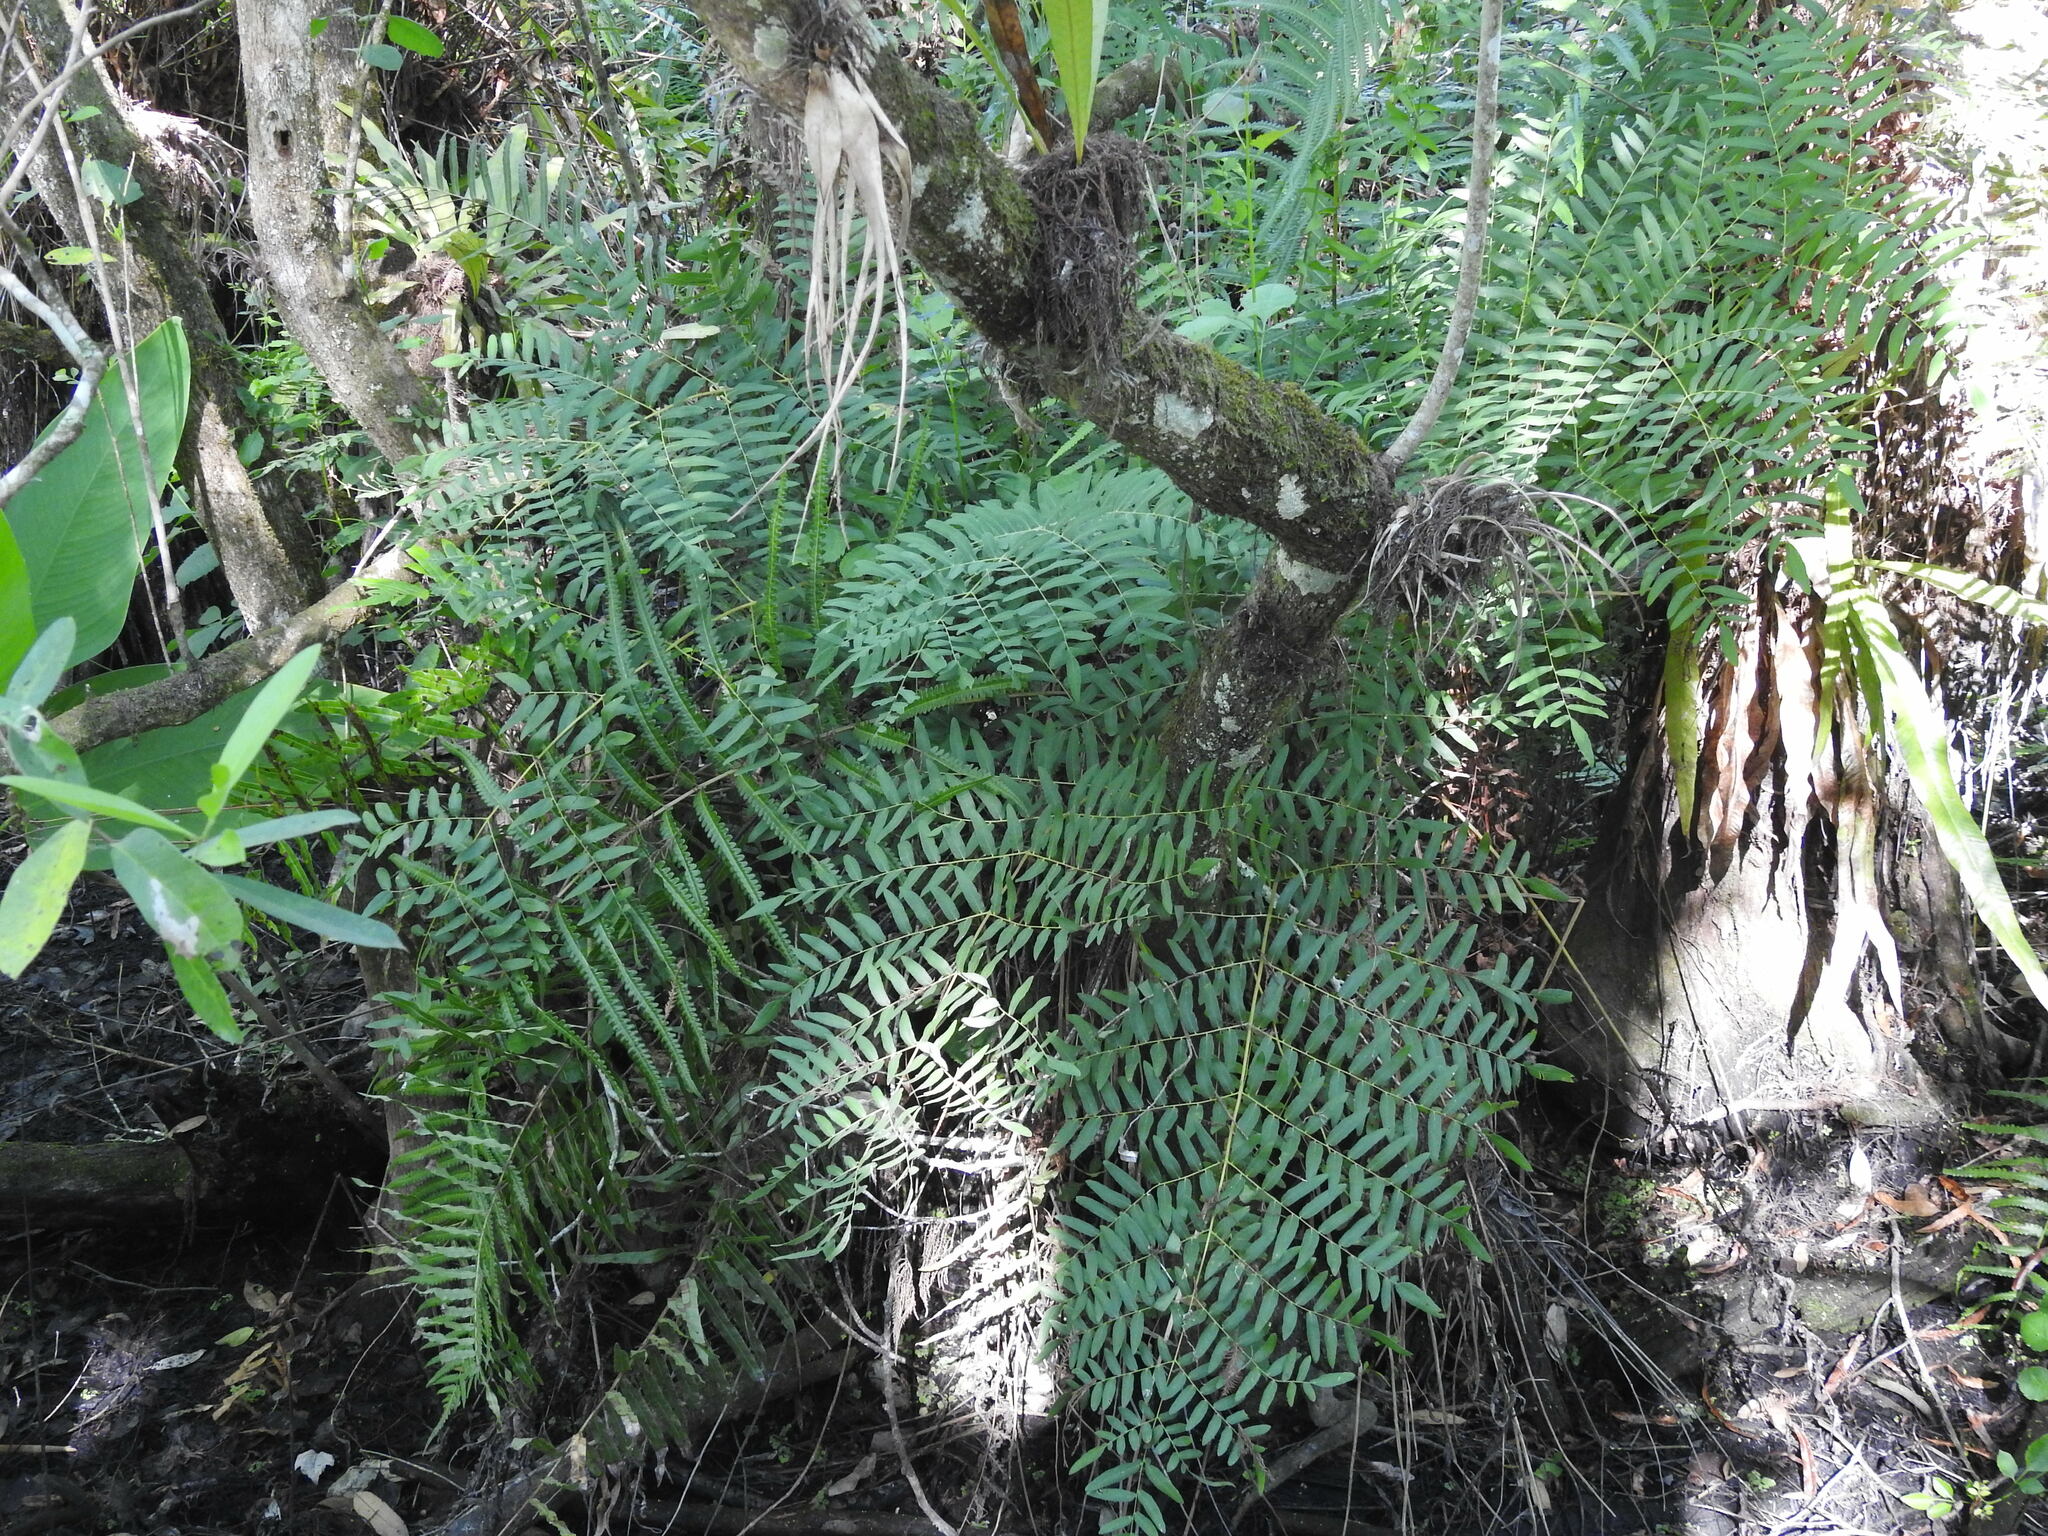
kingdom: Plantae
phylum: Tracheophyta
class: Polypodiopsida
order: Osmundales
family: Osmundaceae
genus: Osmunda
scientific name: Osmunda spectabilis
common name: American royal fern
